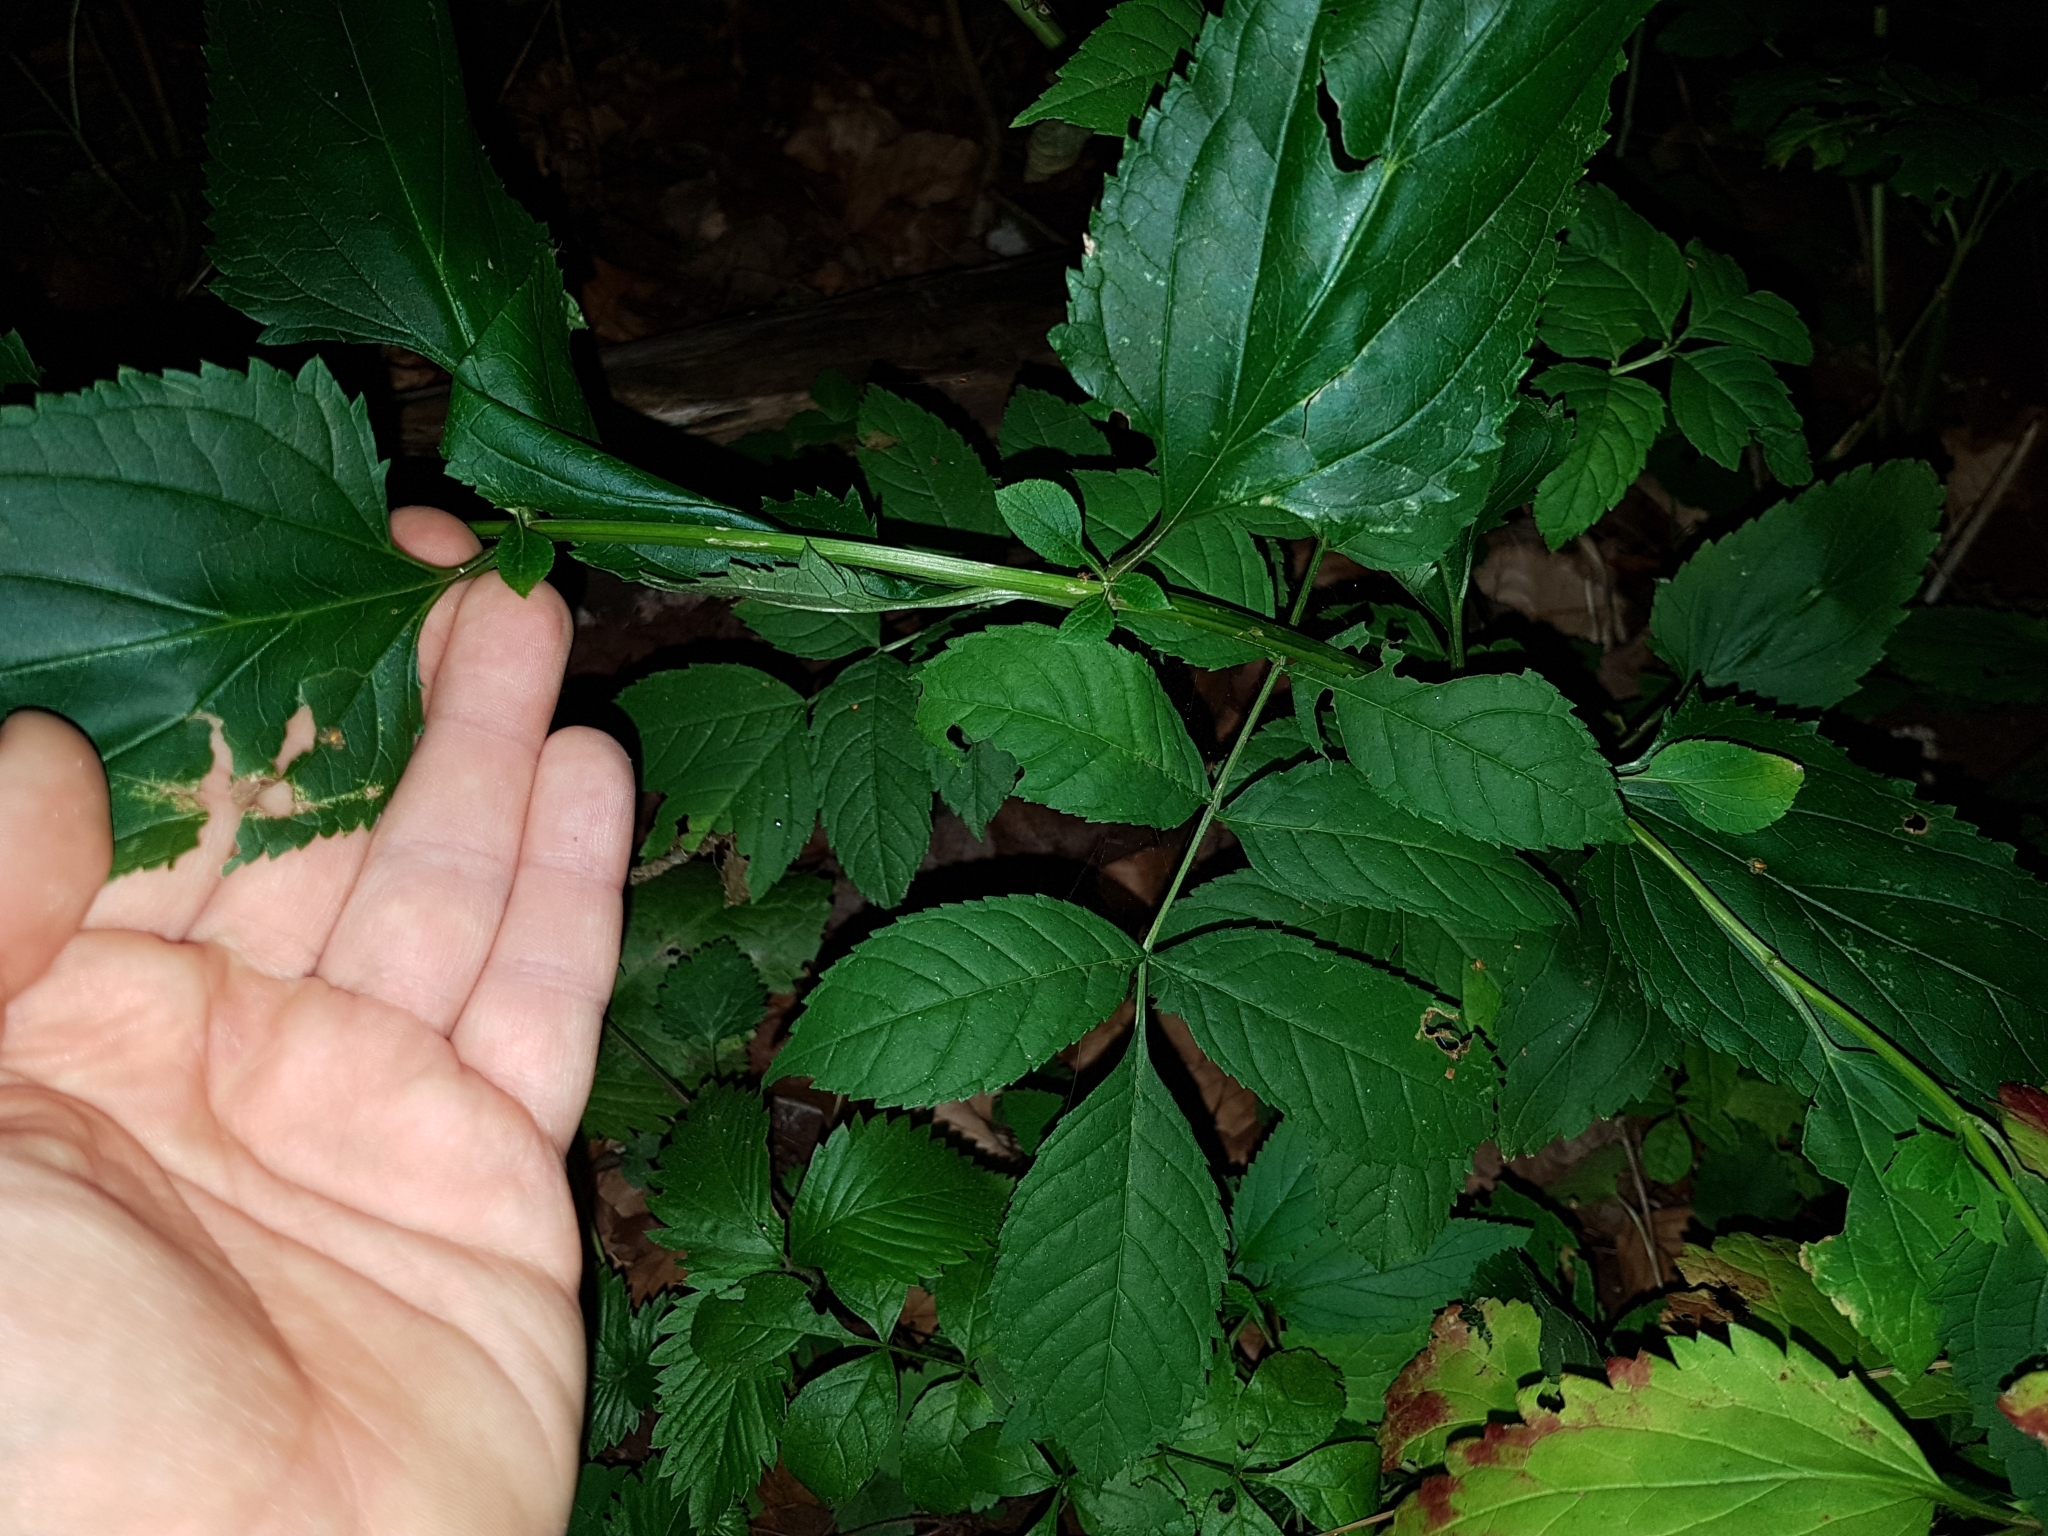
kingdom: Plantae
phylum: Tracheophyta
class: Magnoliopsida
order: Lamiales
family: Scrophulariaceae
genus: Scrophularia
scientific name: Scrophularia nodosa
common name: Common figwort
